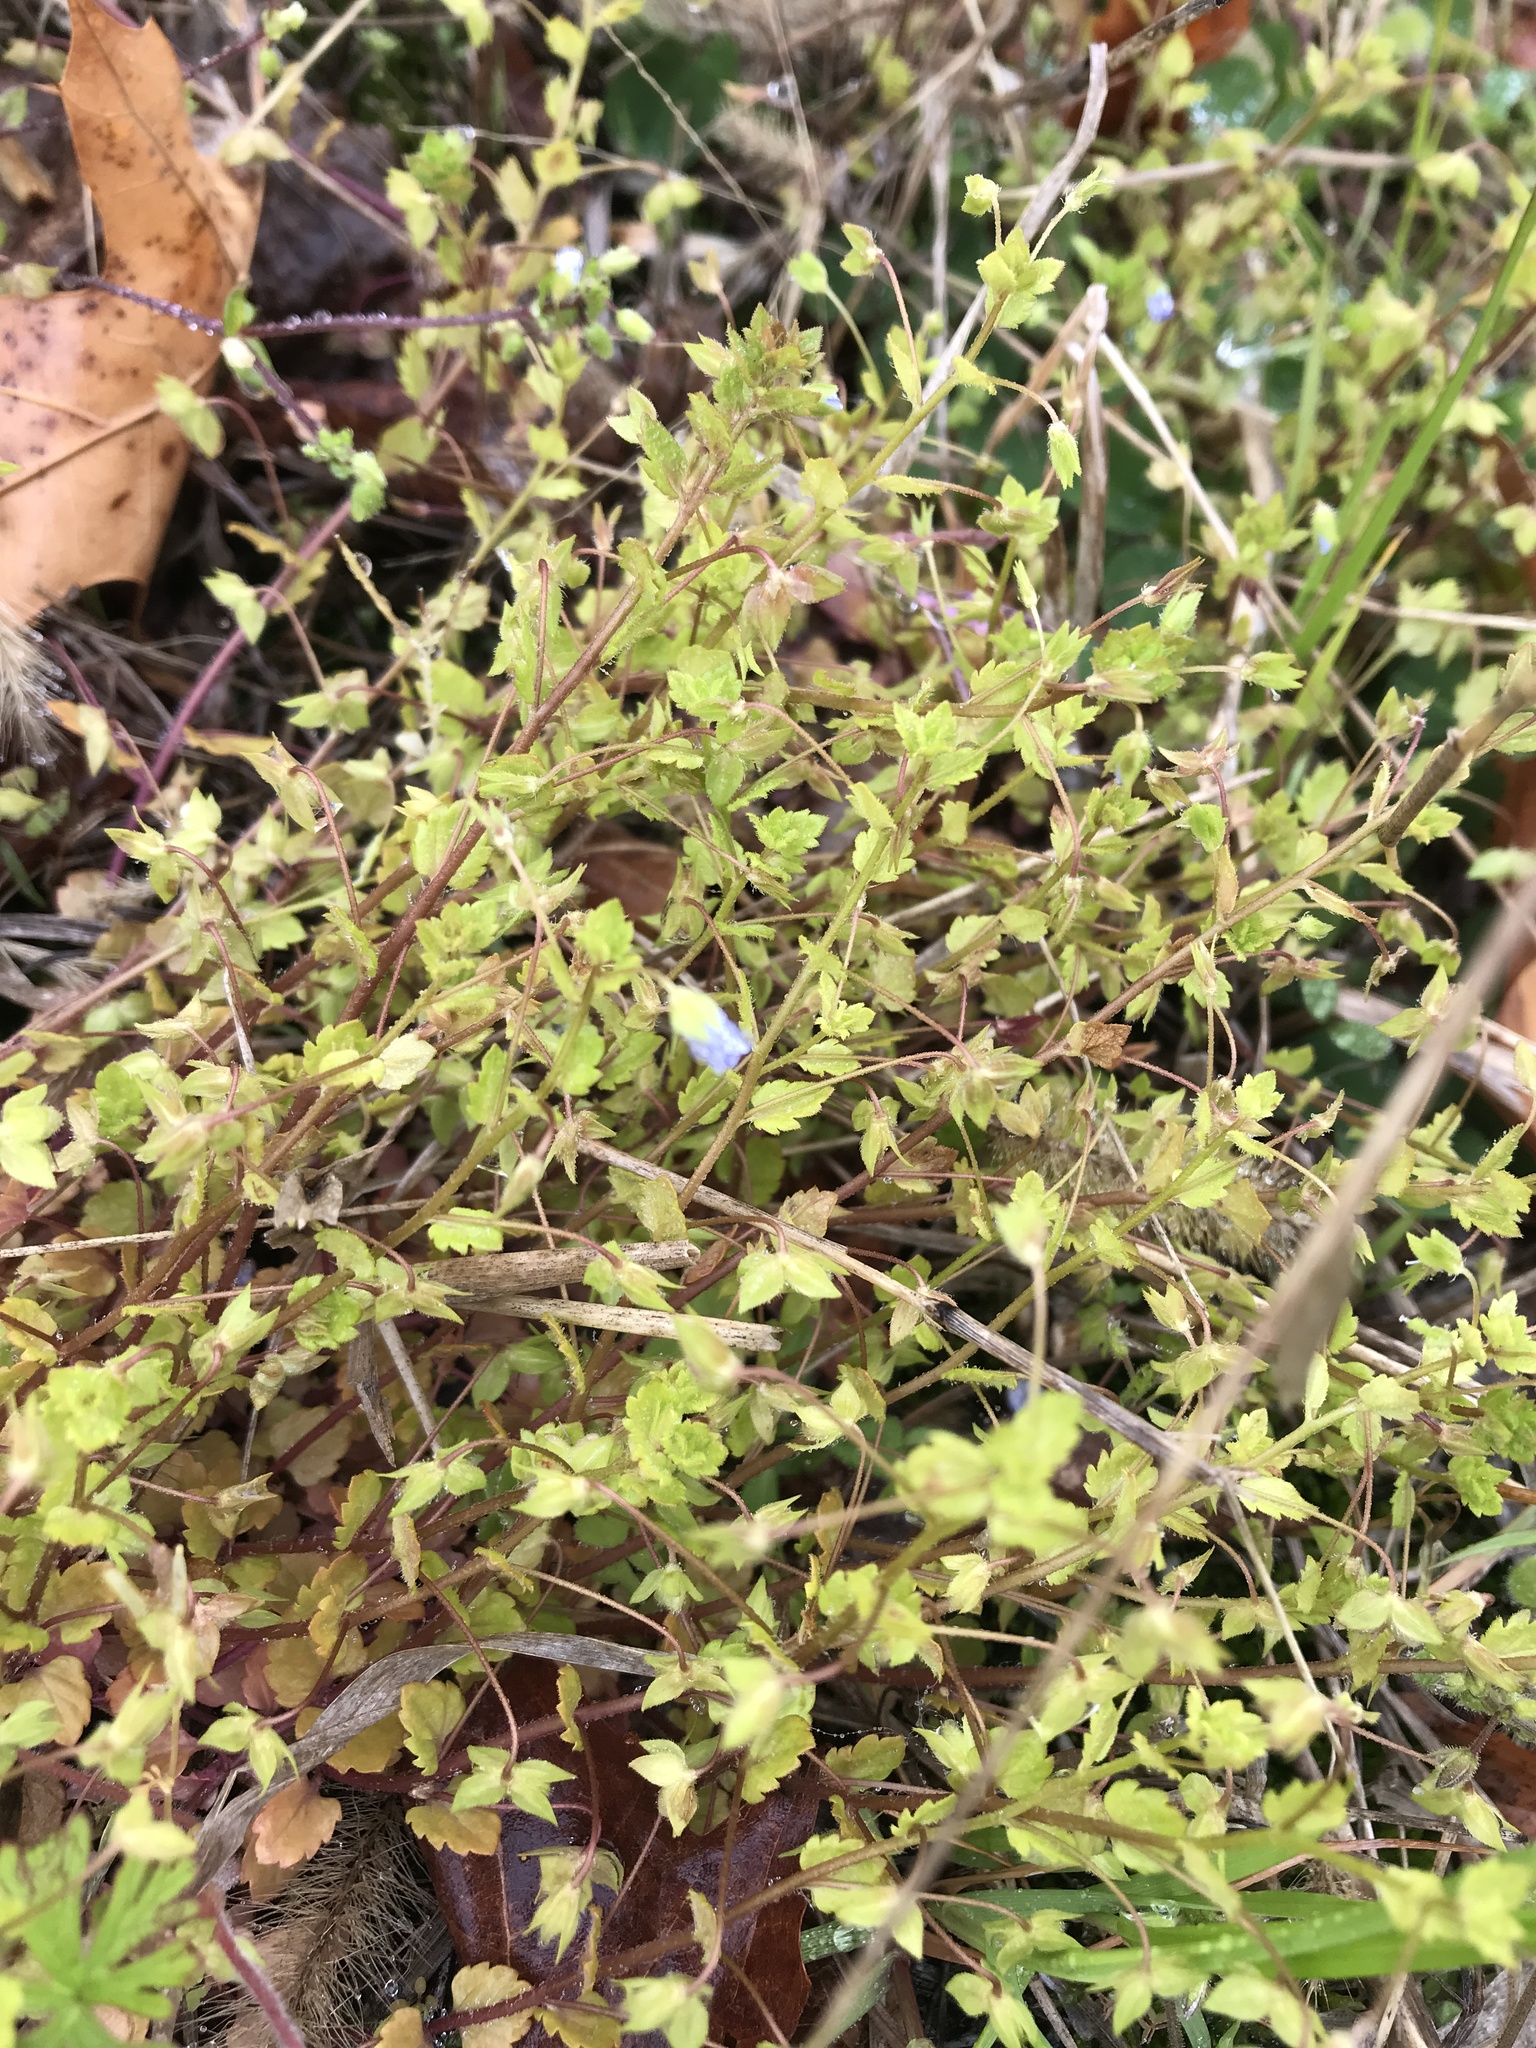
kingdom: Plantae
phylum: Tracheophyta
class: Magnoliopsida
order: Lamiales
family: Plantaginaceae
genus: Veronica
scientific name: Veronica persica
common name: Common field-speedwell
